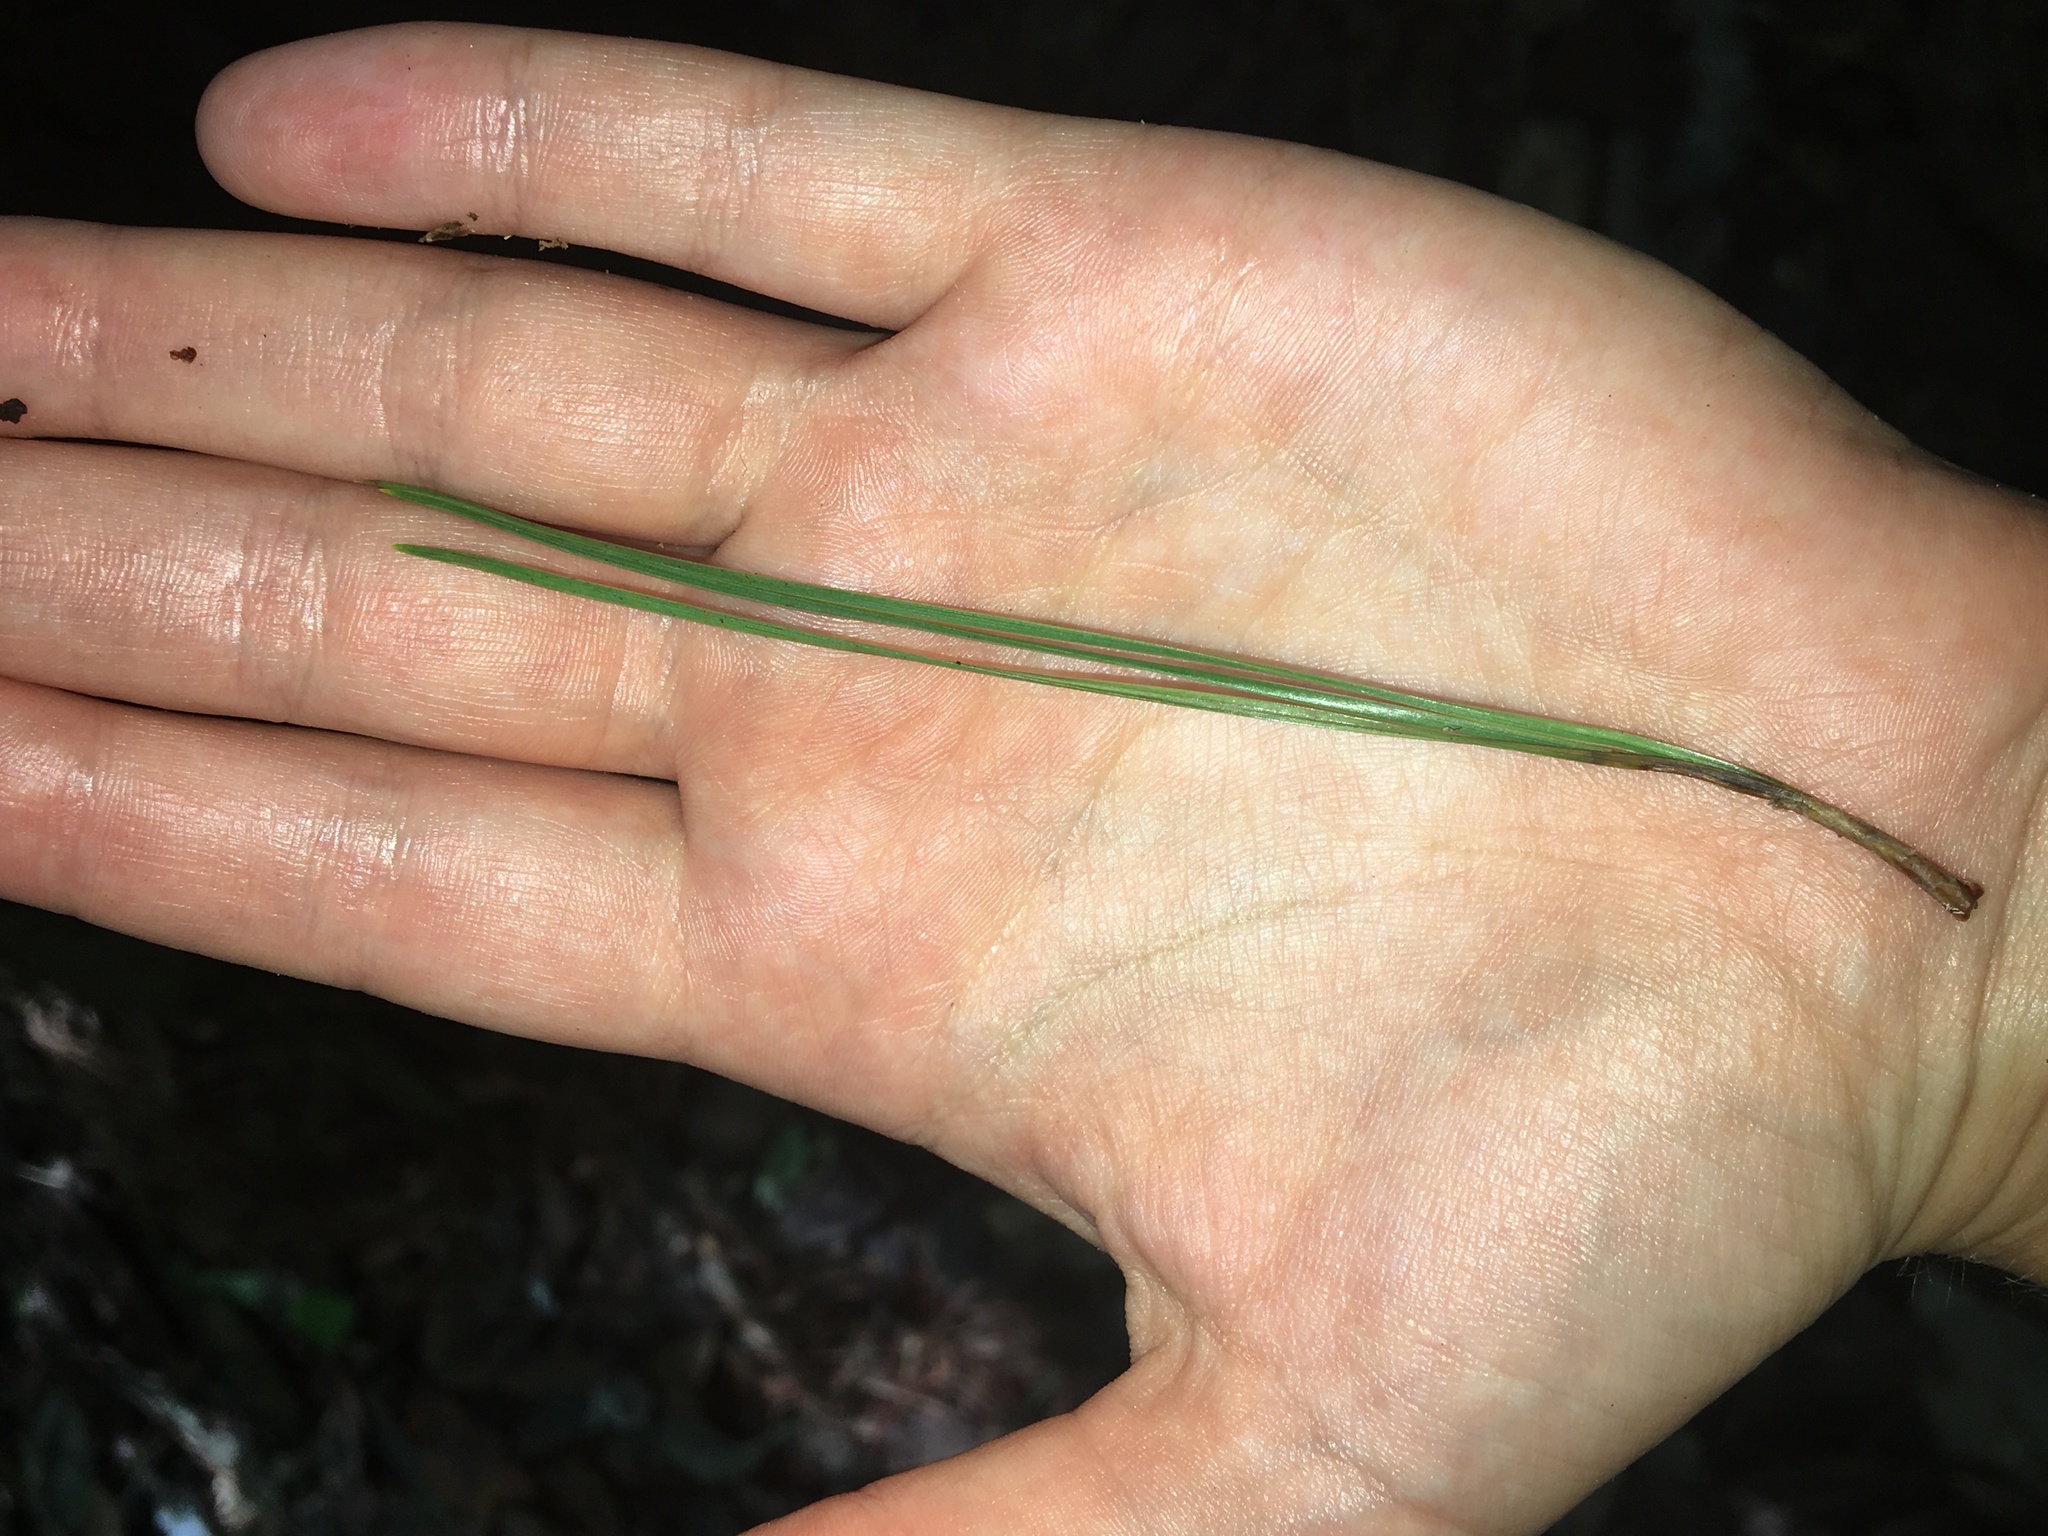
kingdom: Plantae
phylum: Tracheophyta
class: Pinopsida
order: Pinales
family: Pinaceae
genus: Pinus
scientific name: Pinus elliottii
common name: Slash pine
